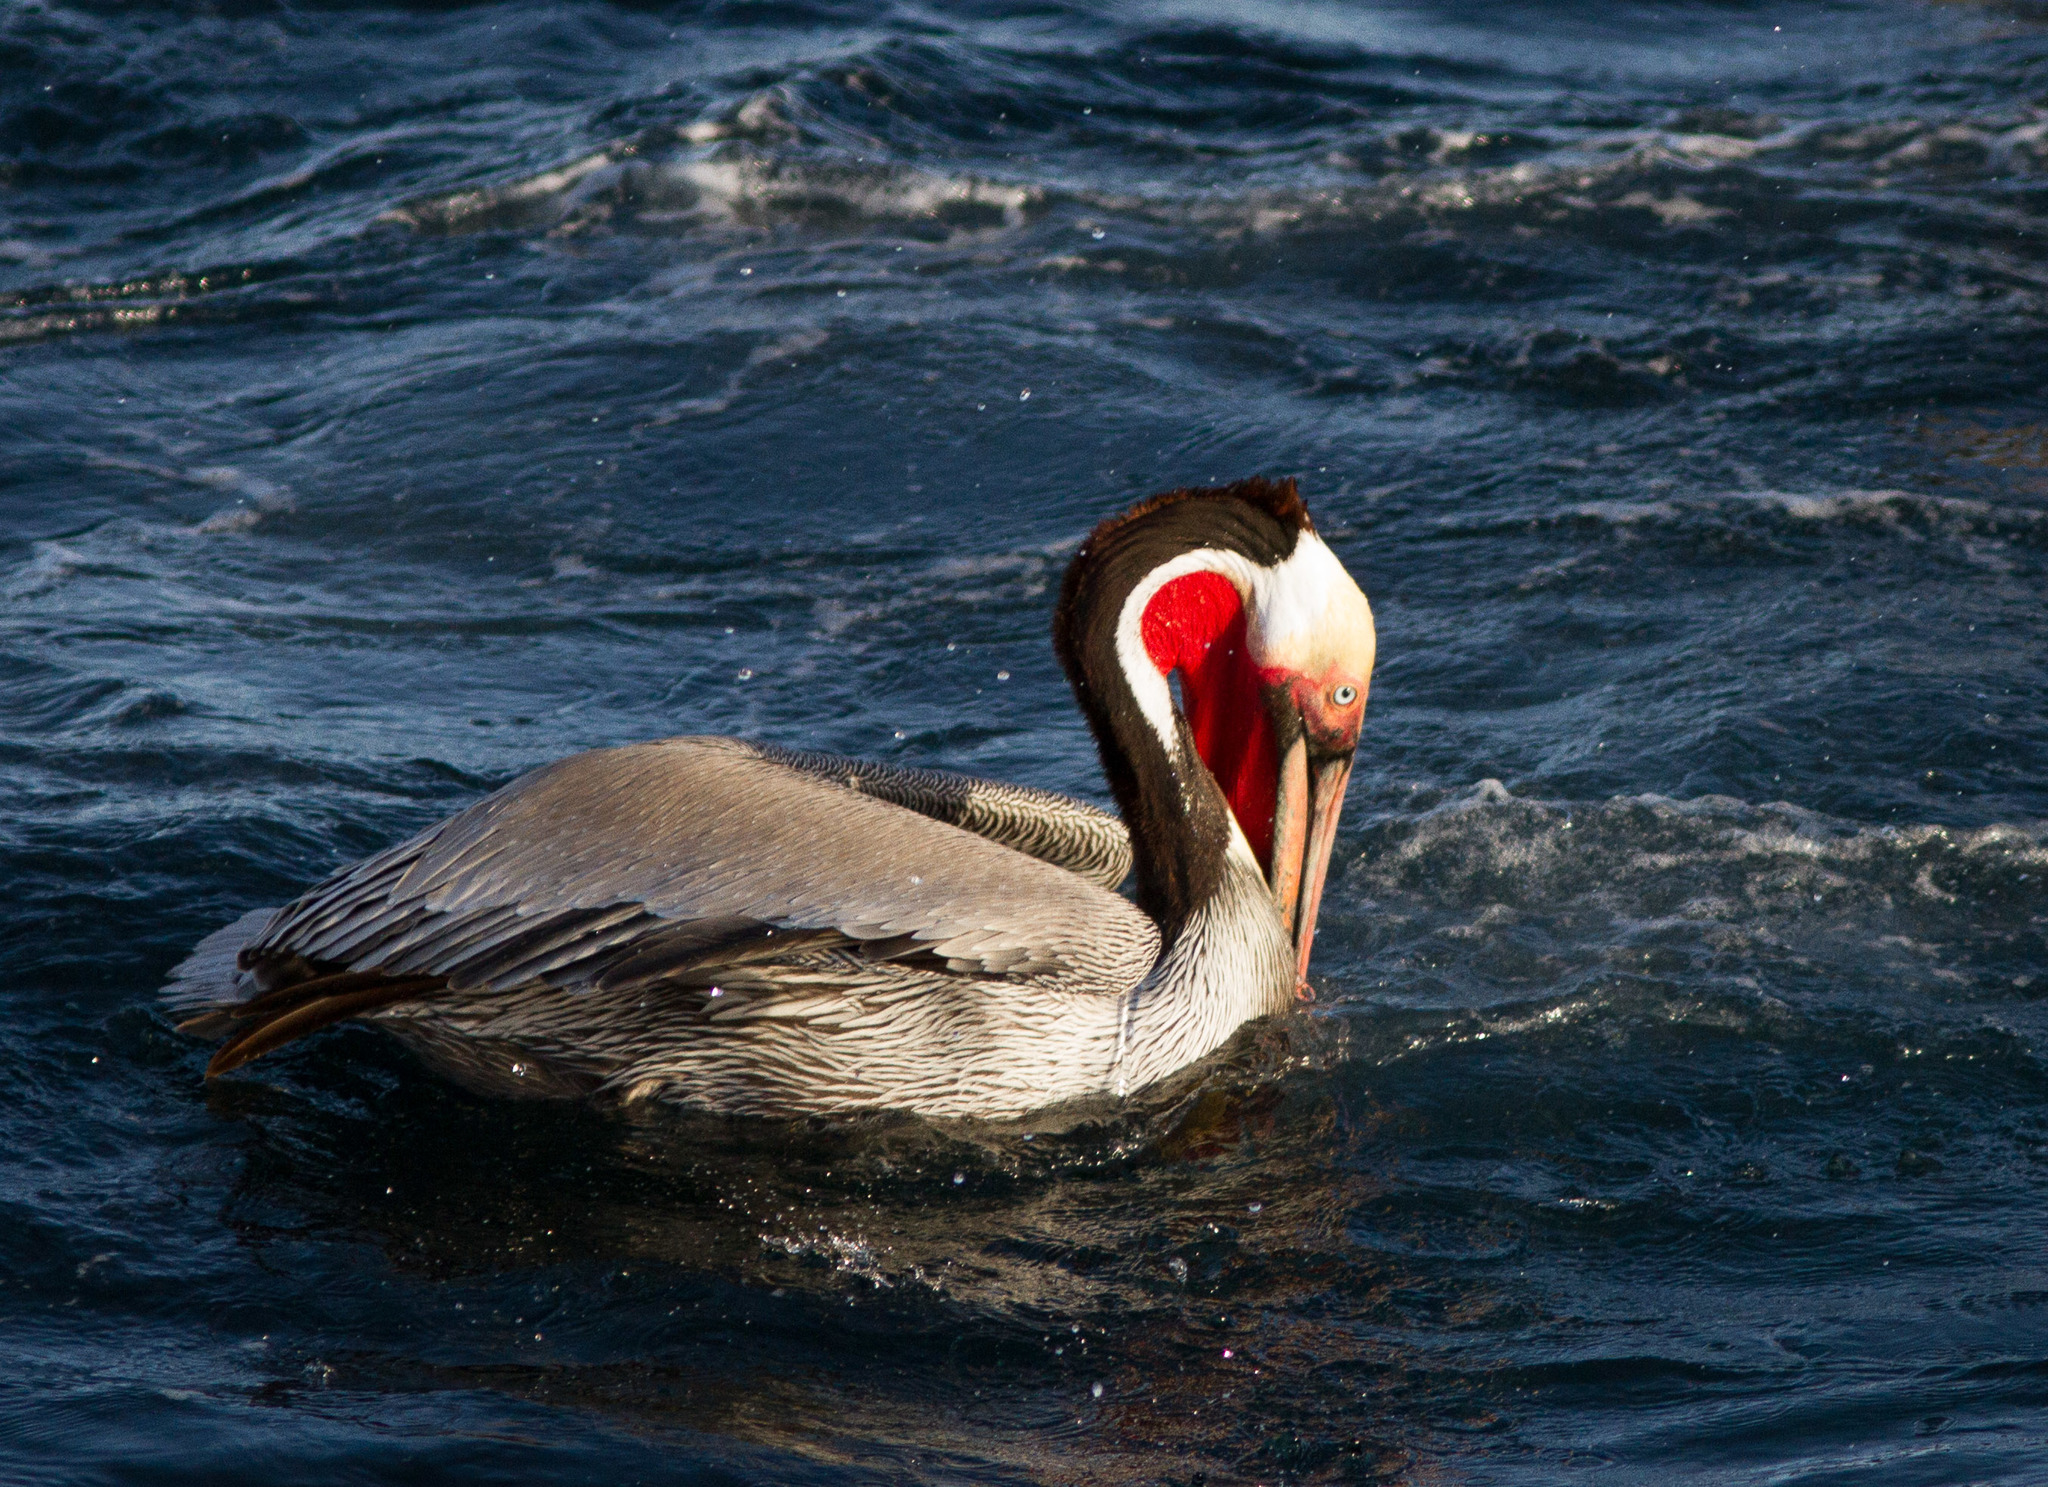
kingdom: Animalia
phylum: Chordata
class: Aves
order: Pelecaniformes
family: Pelecanidae
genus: Pelecanus
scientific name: Pelecanus occidentalis
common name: Brown pelican
